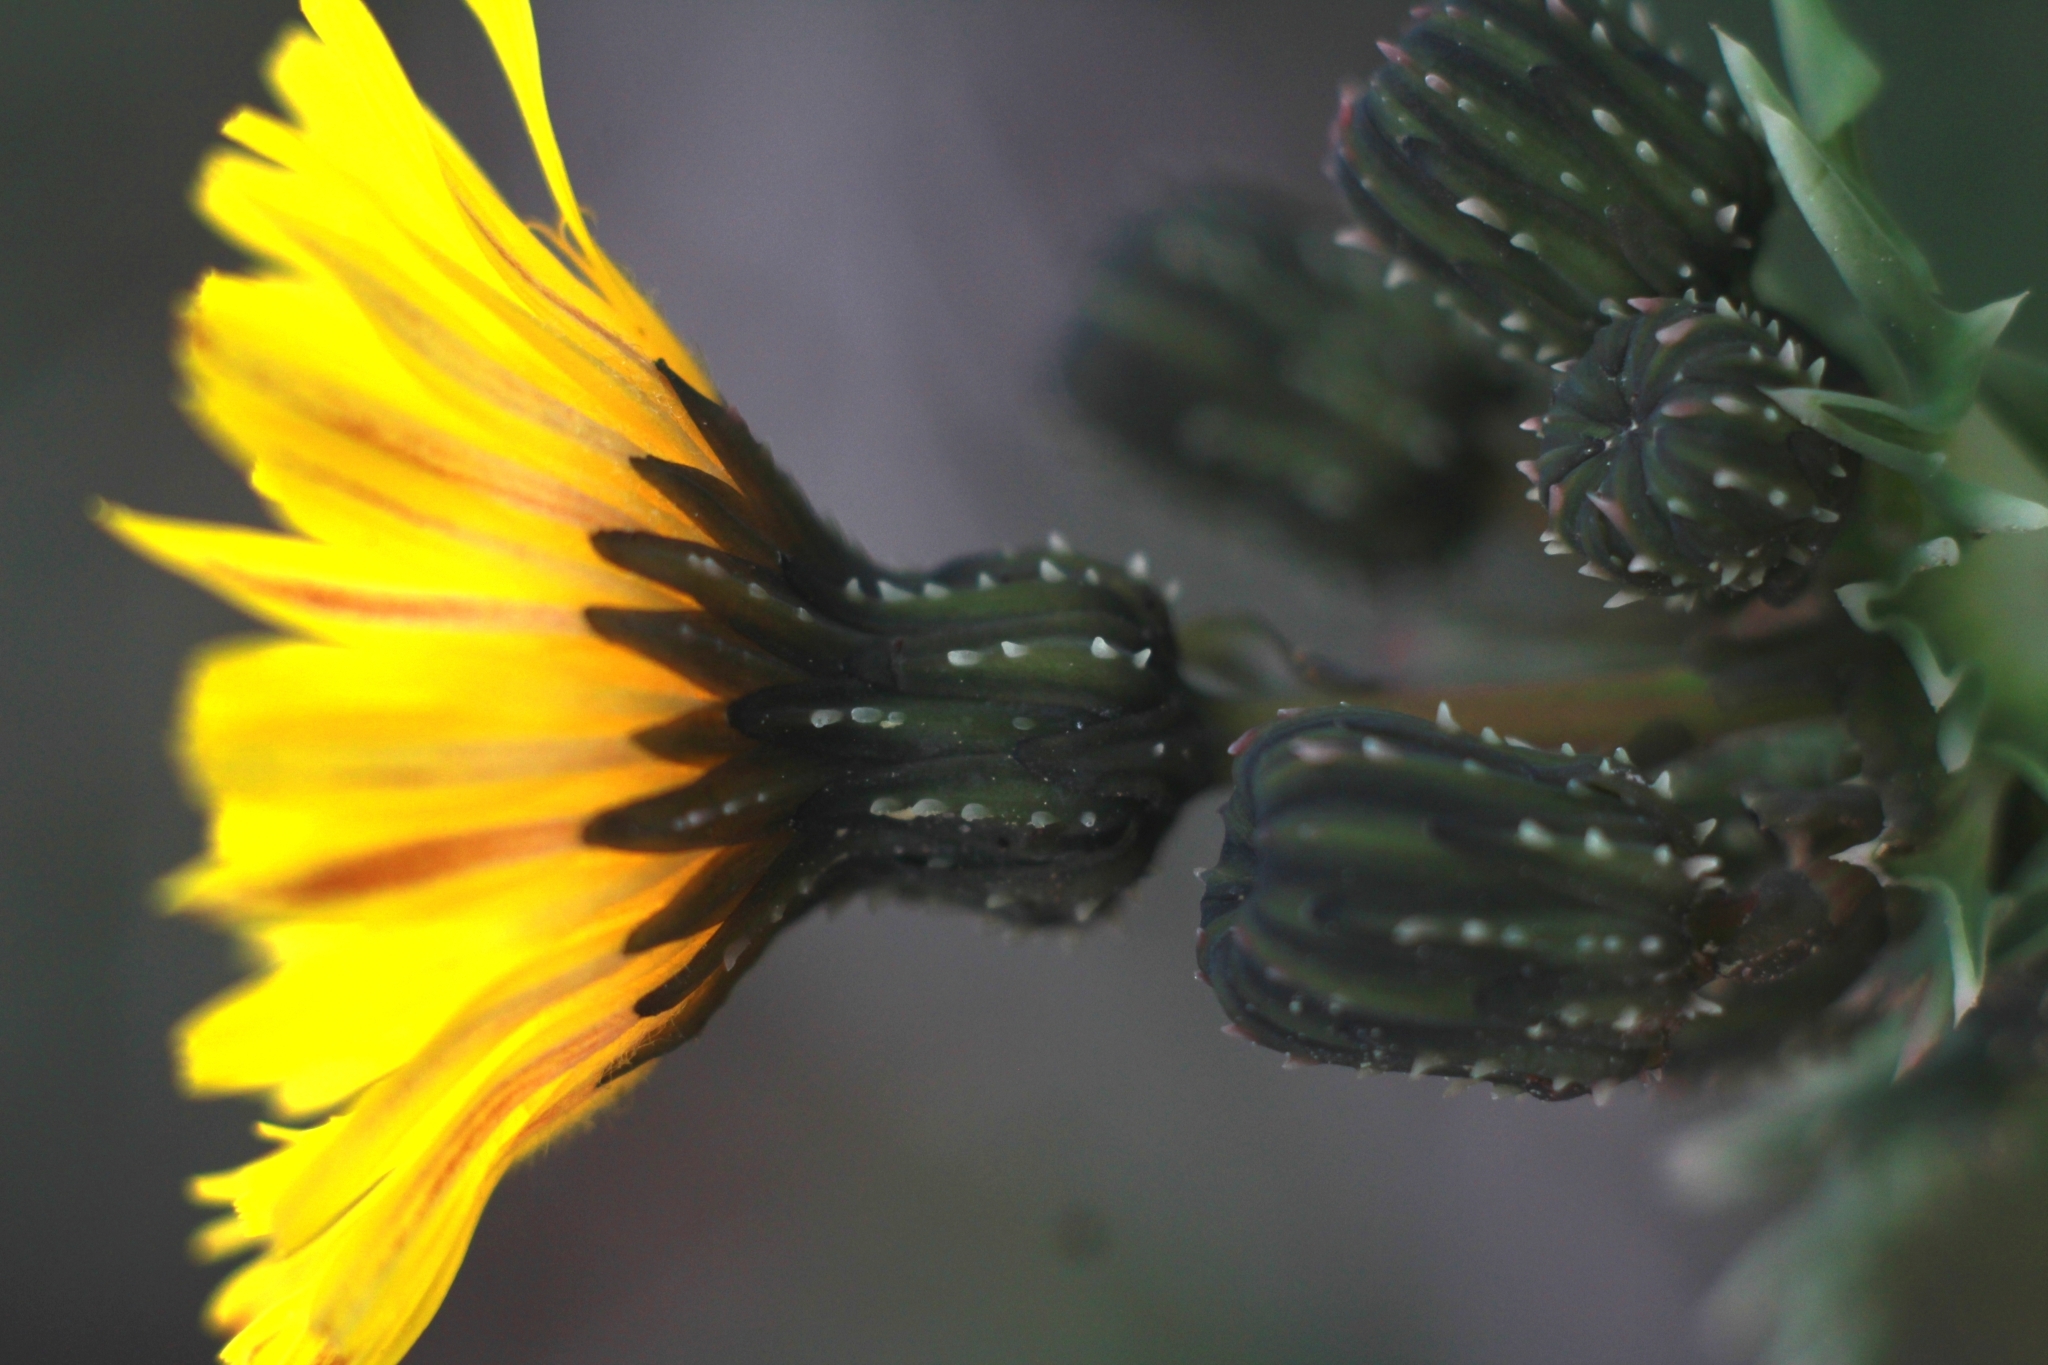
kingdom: Plantae
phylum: Tracheophyta
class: Magnoliopsida
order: Asterales
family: Asteraceae
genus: Sonchus
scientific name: Sonchus asper
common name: Prickly sow-thistle
